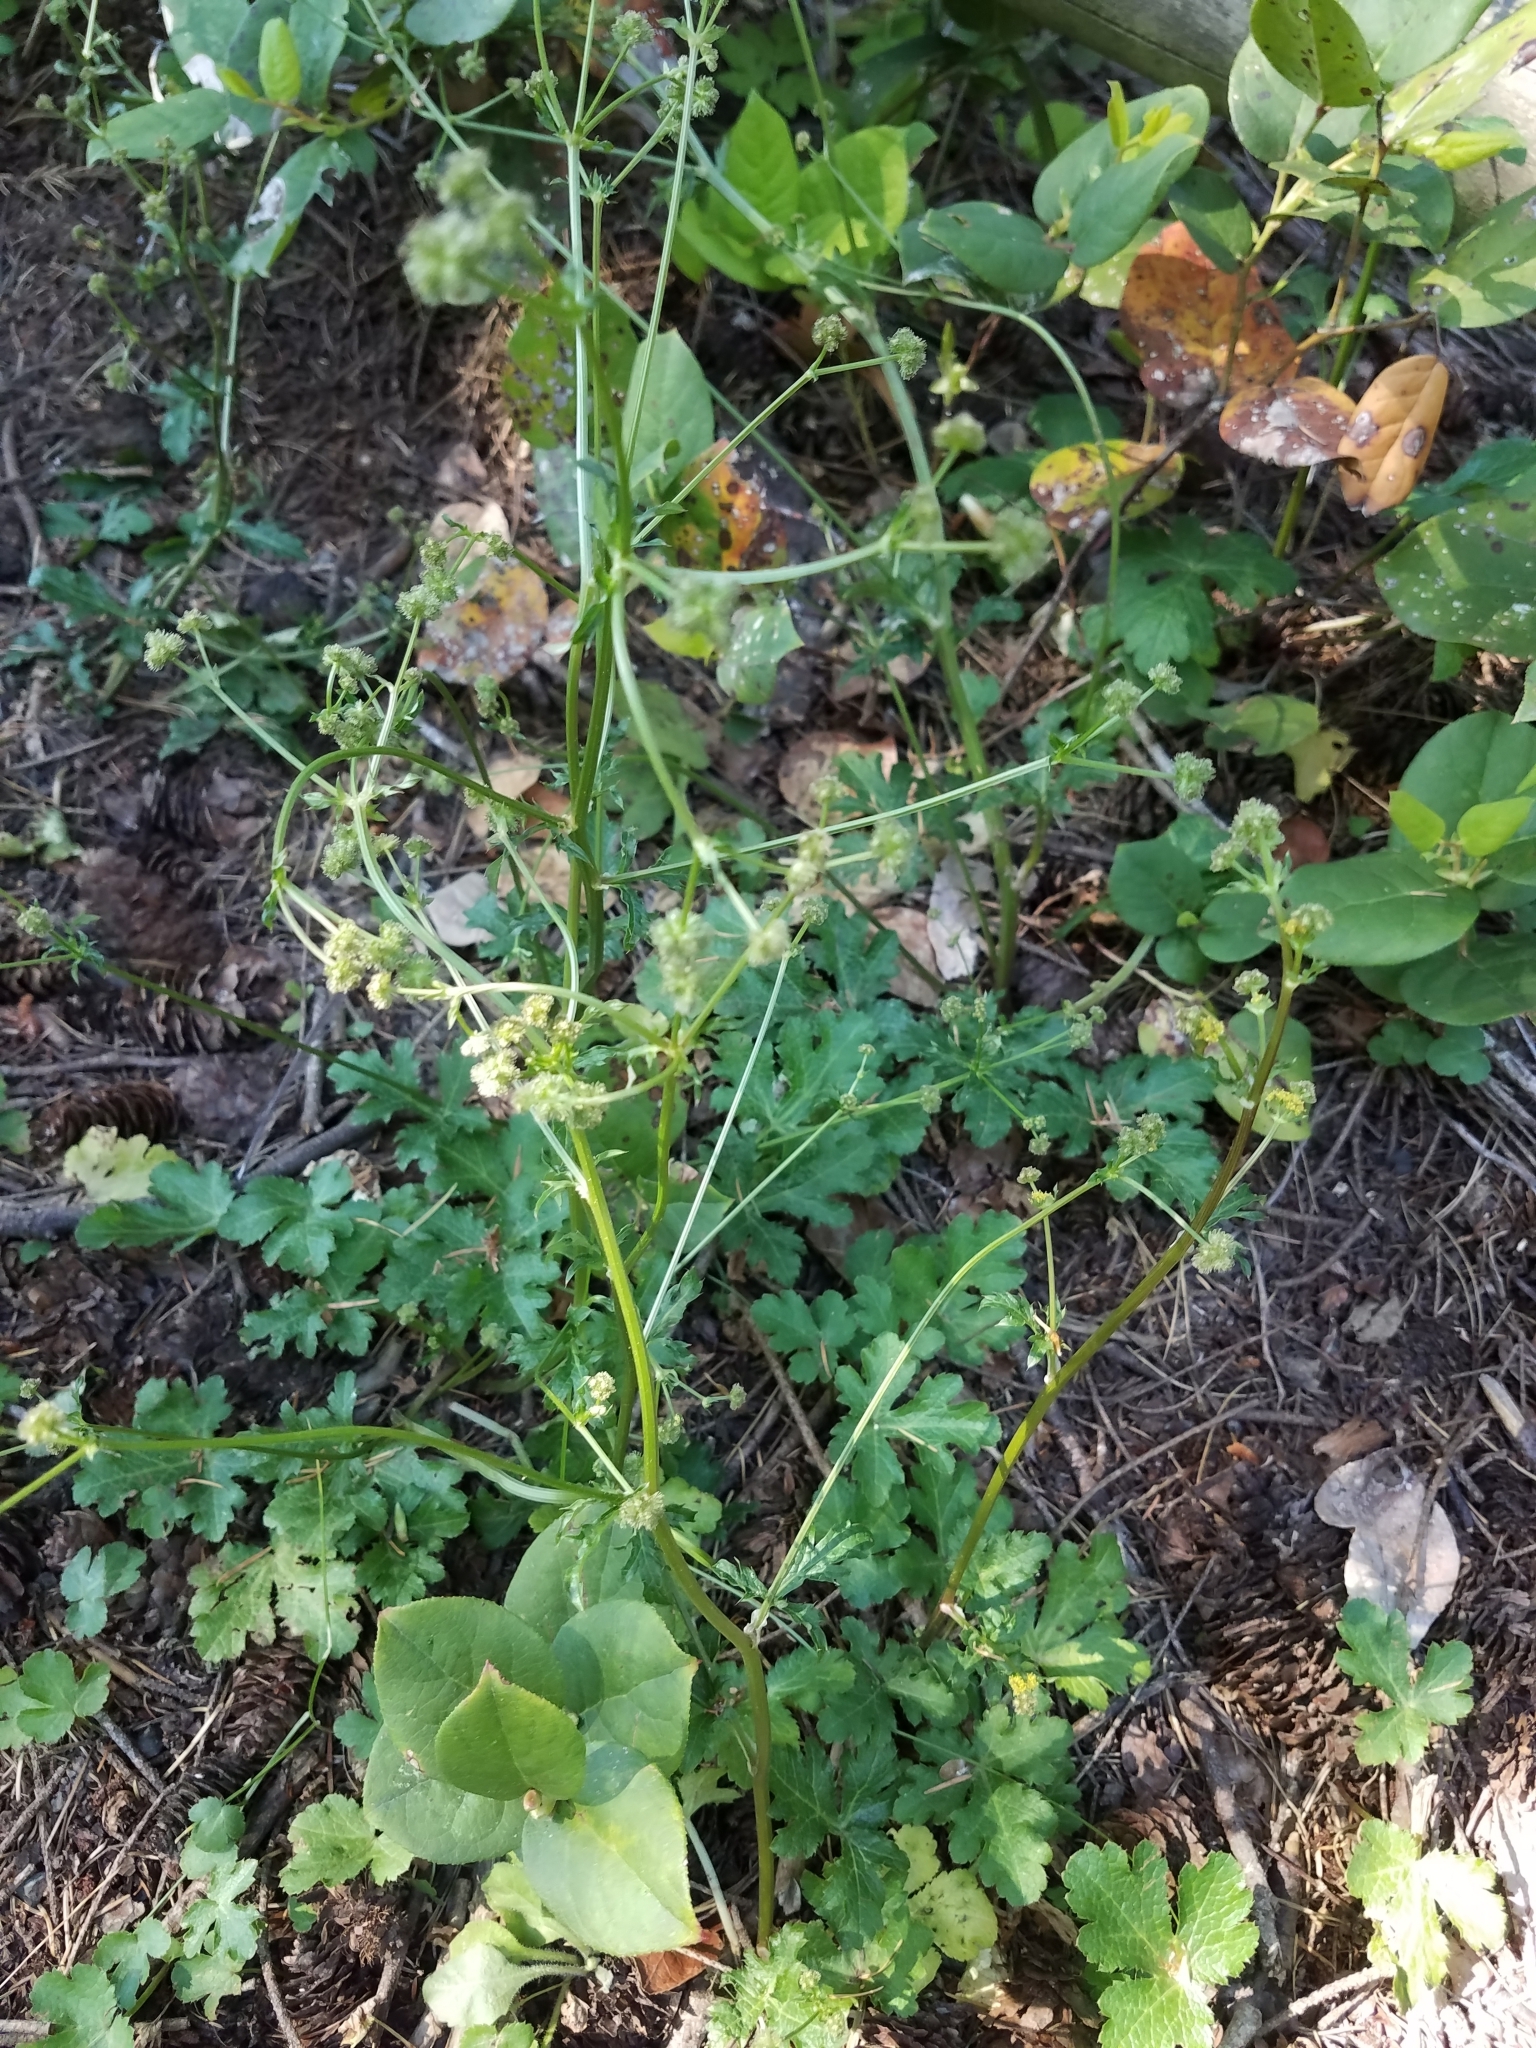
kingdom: Plantae
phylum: Tracheophyta
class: Magnoliopsida
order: Apiales
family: Apiaceae
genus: Sanicula
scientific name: Sanicula crassicaulis
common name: Western snakeroot
